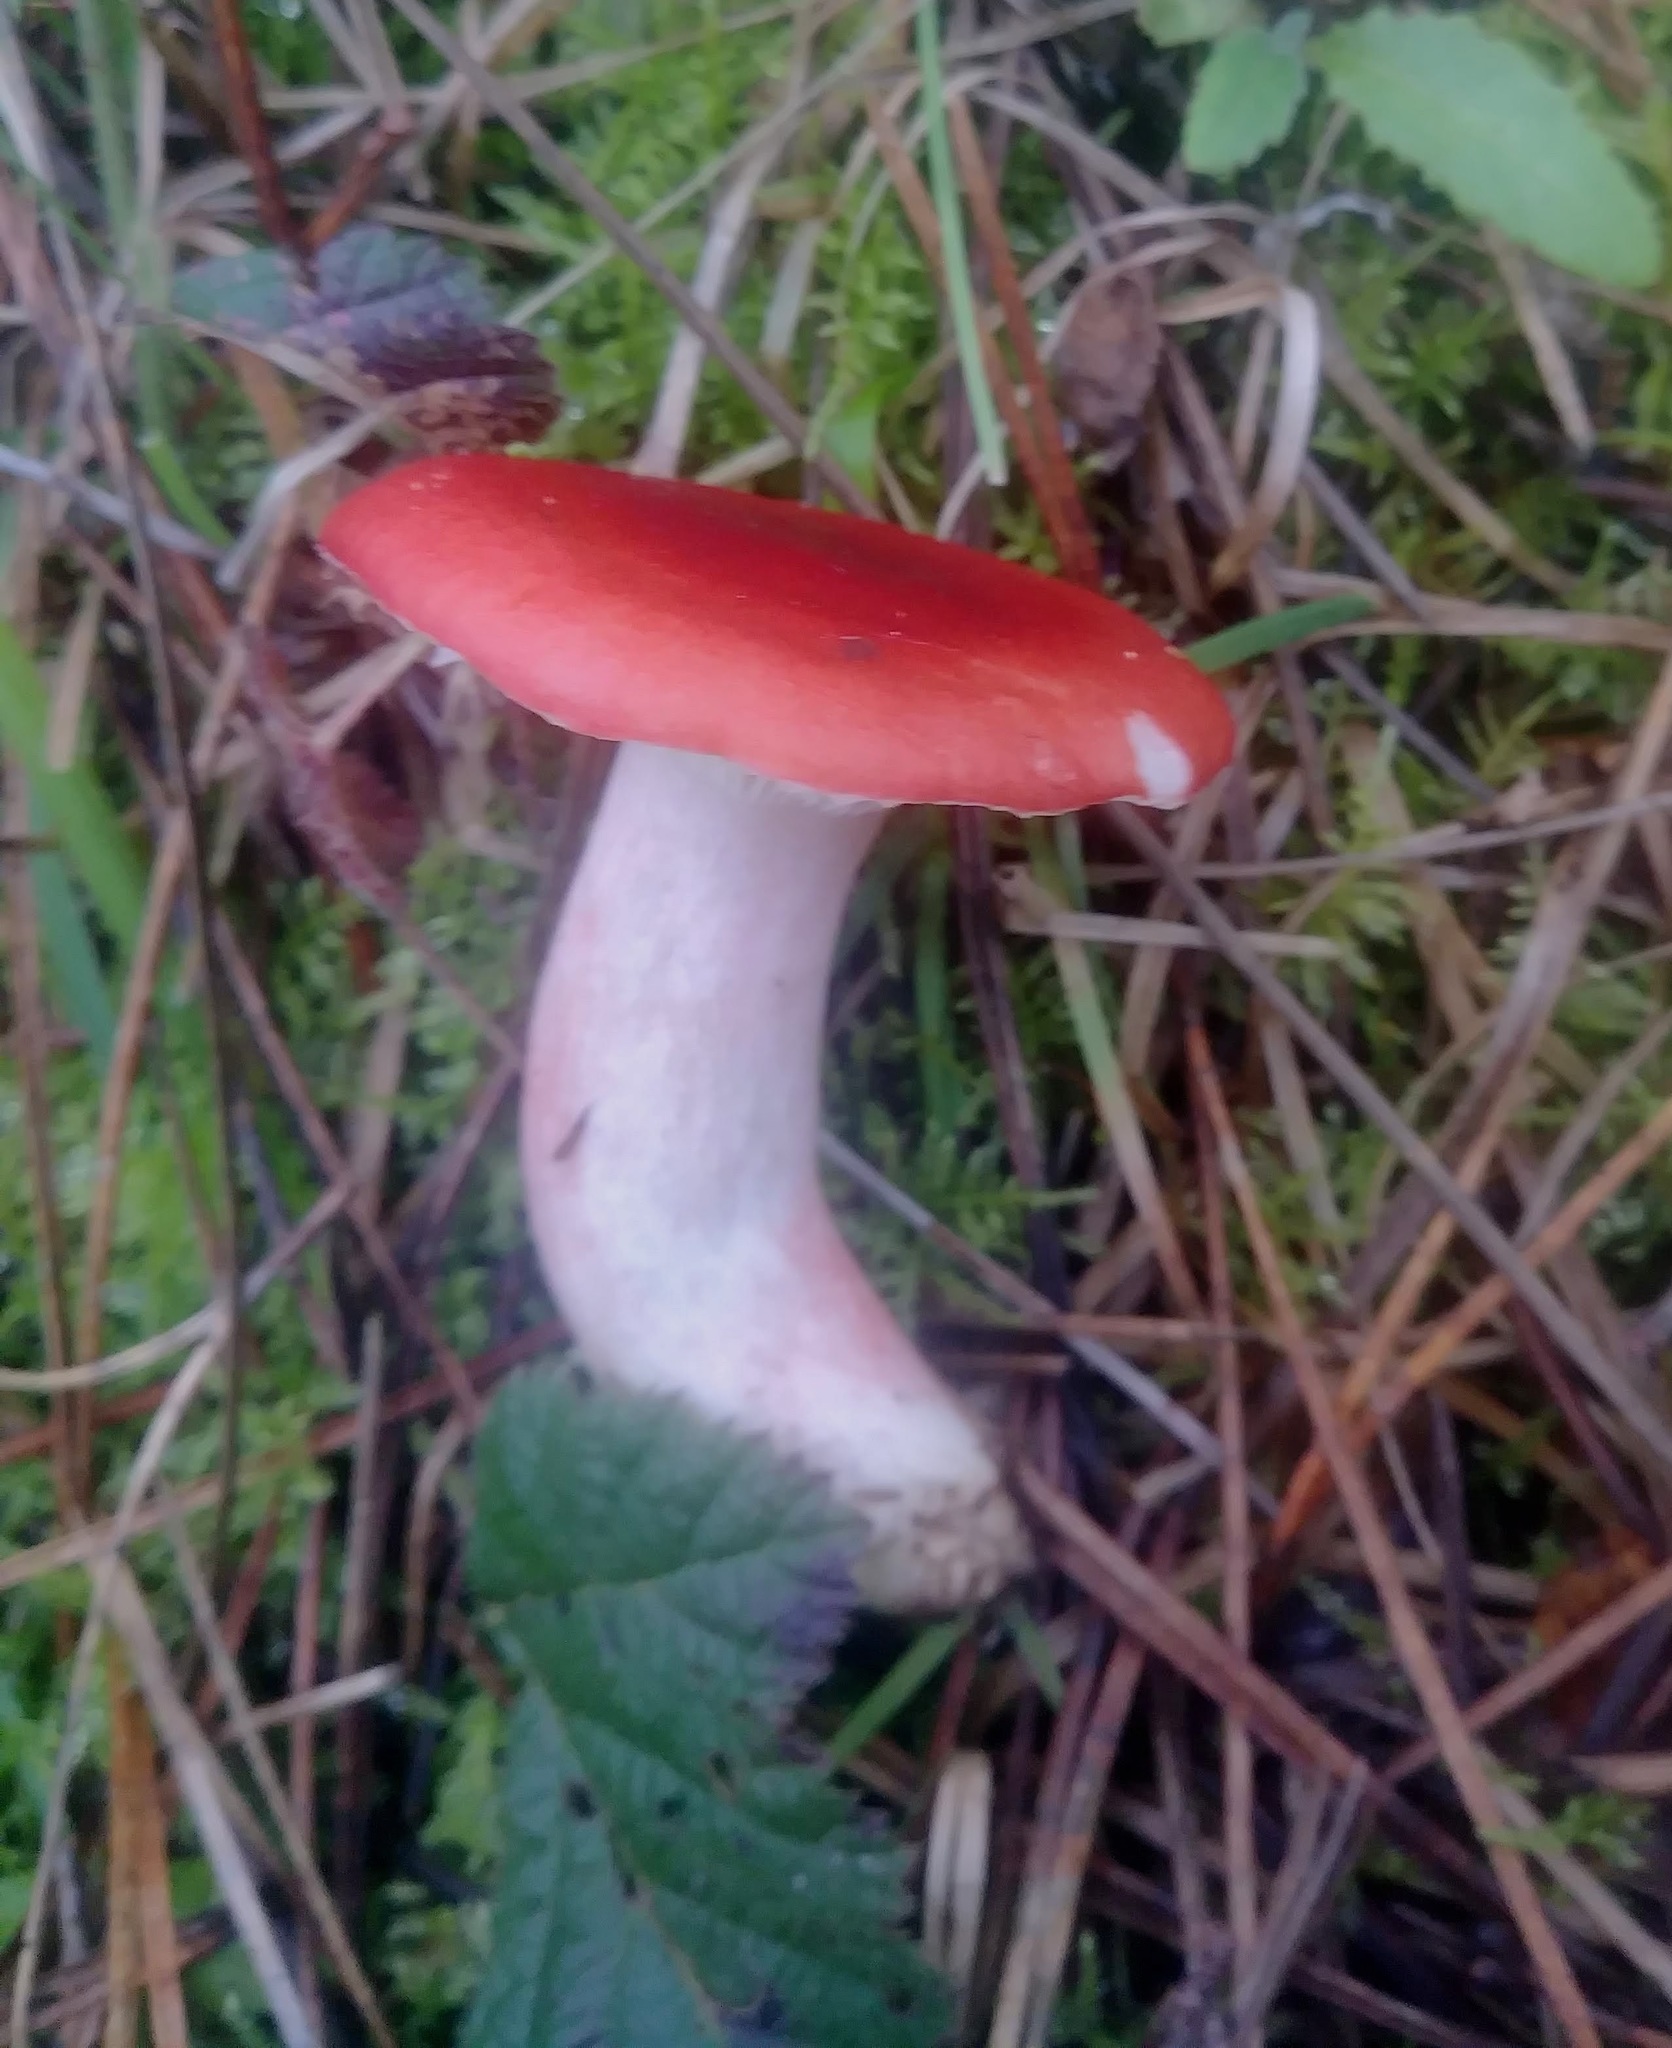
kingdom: Fungi
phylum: Basidiomycota
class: Agaricomycetes
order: Russulales
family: Russulaceae
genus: Russula
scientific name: Russula rhodocephala
